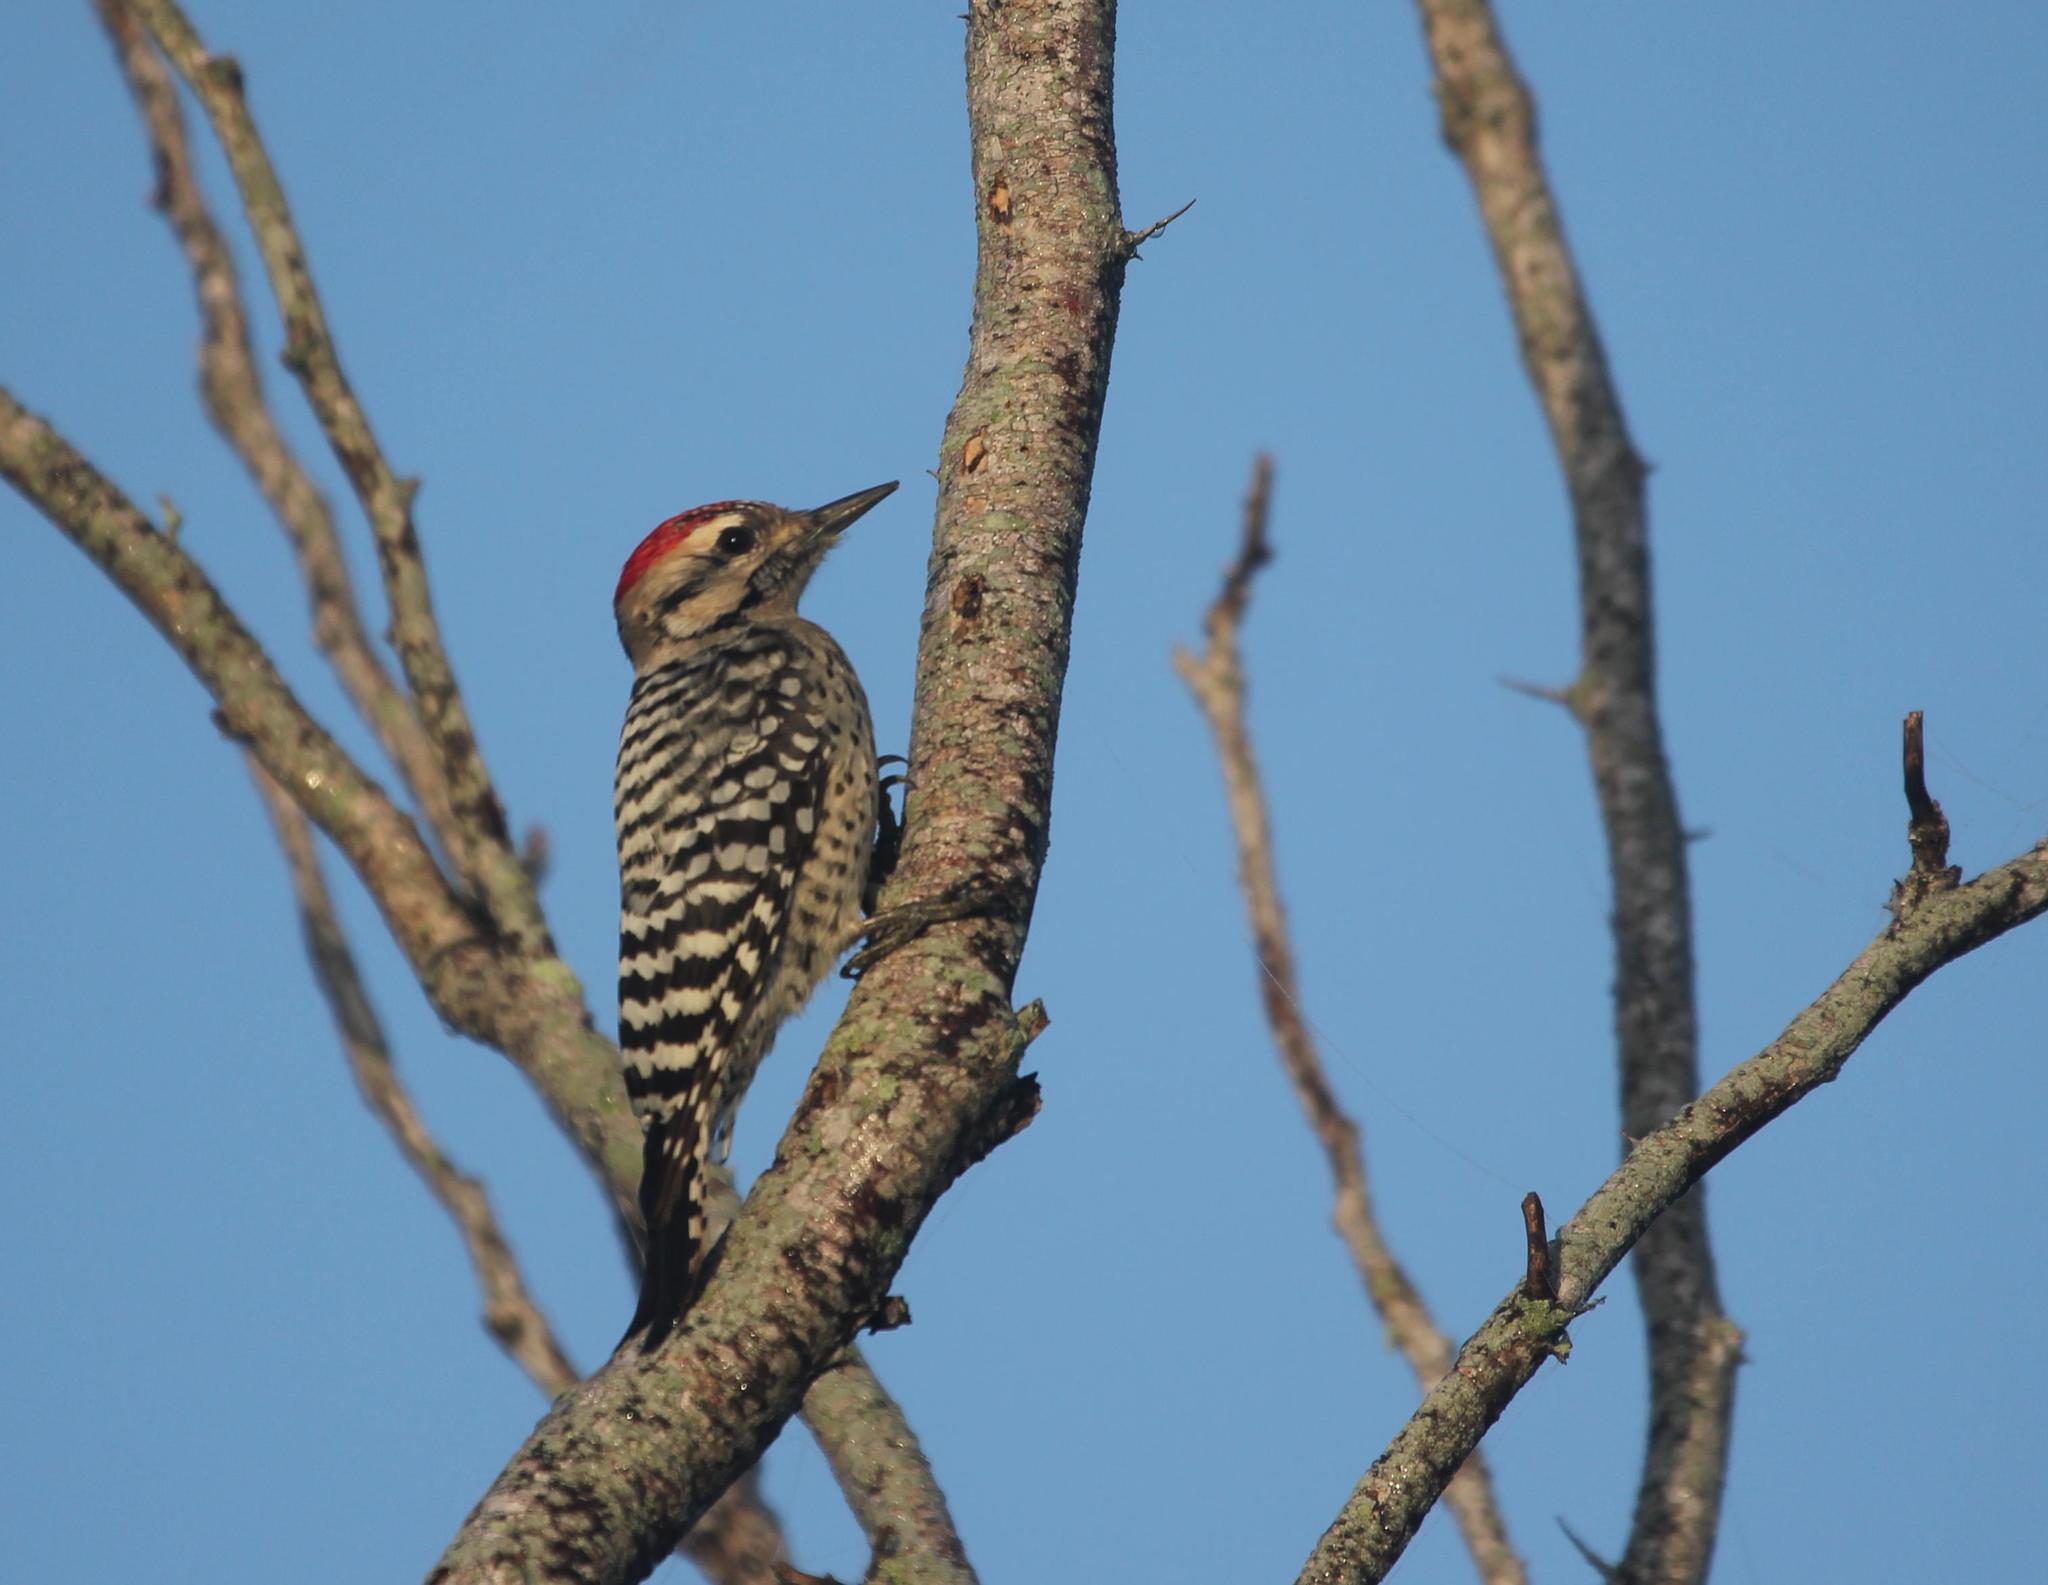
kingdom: Animalia
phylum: Chordata
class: Aves
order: Piciformes
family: Picidae
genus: Dryobates
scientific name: Dryobates scalaris
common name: Ladder-backed woodpecker
